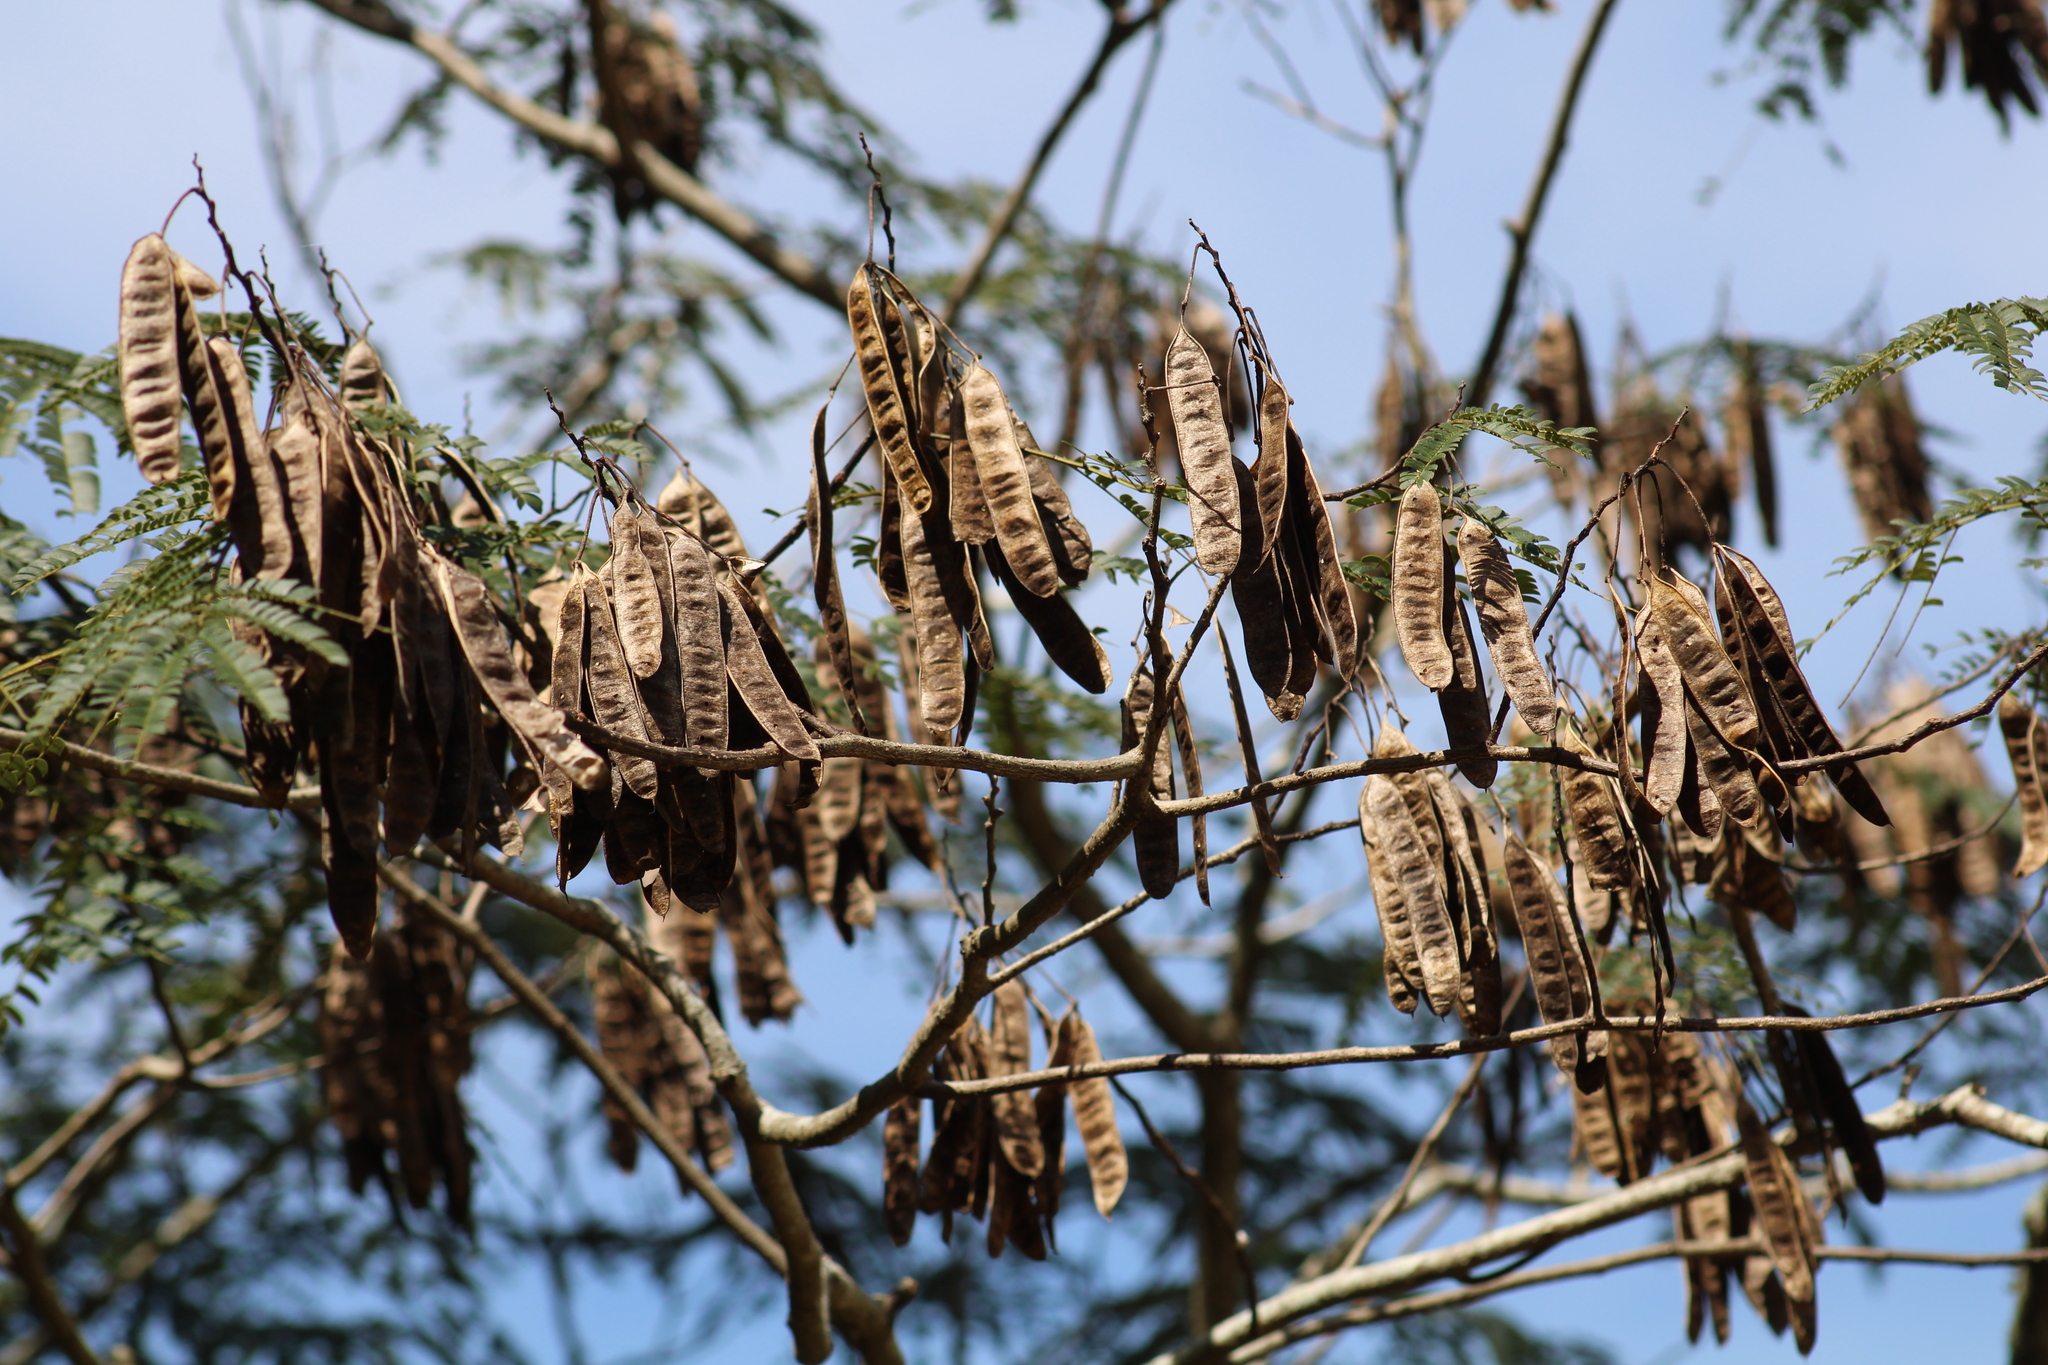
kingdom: Plantae
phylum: Tracheophyta
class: Magnoliopsida
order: Fabales
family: Fabaceae
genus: Albizia
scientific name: Albizia julibrissin
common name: Silktree
